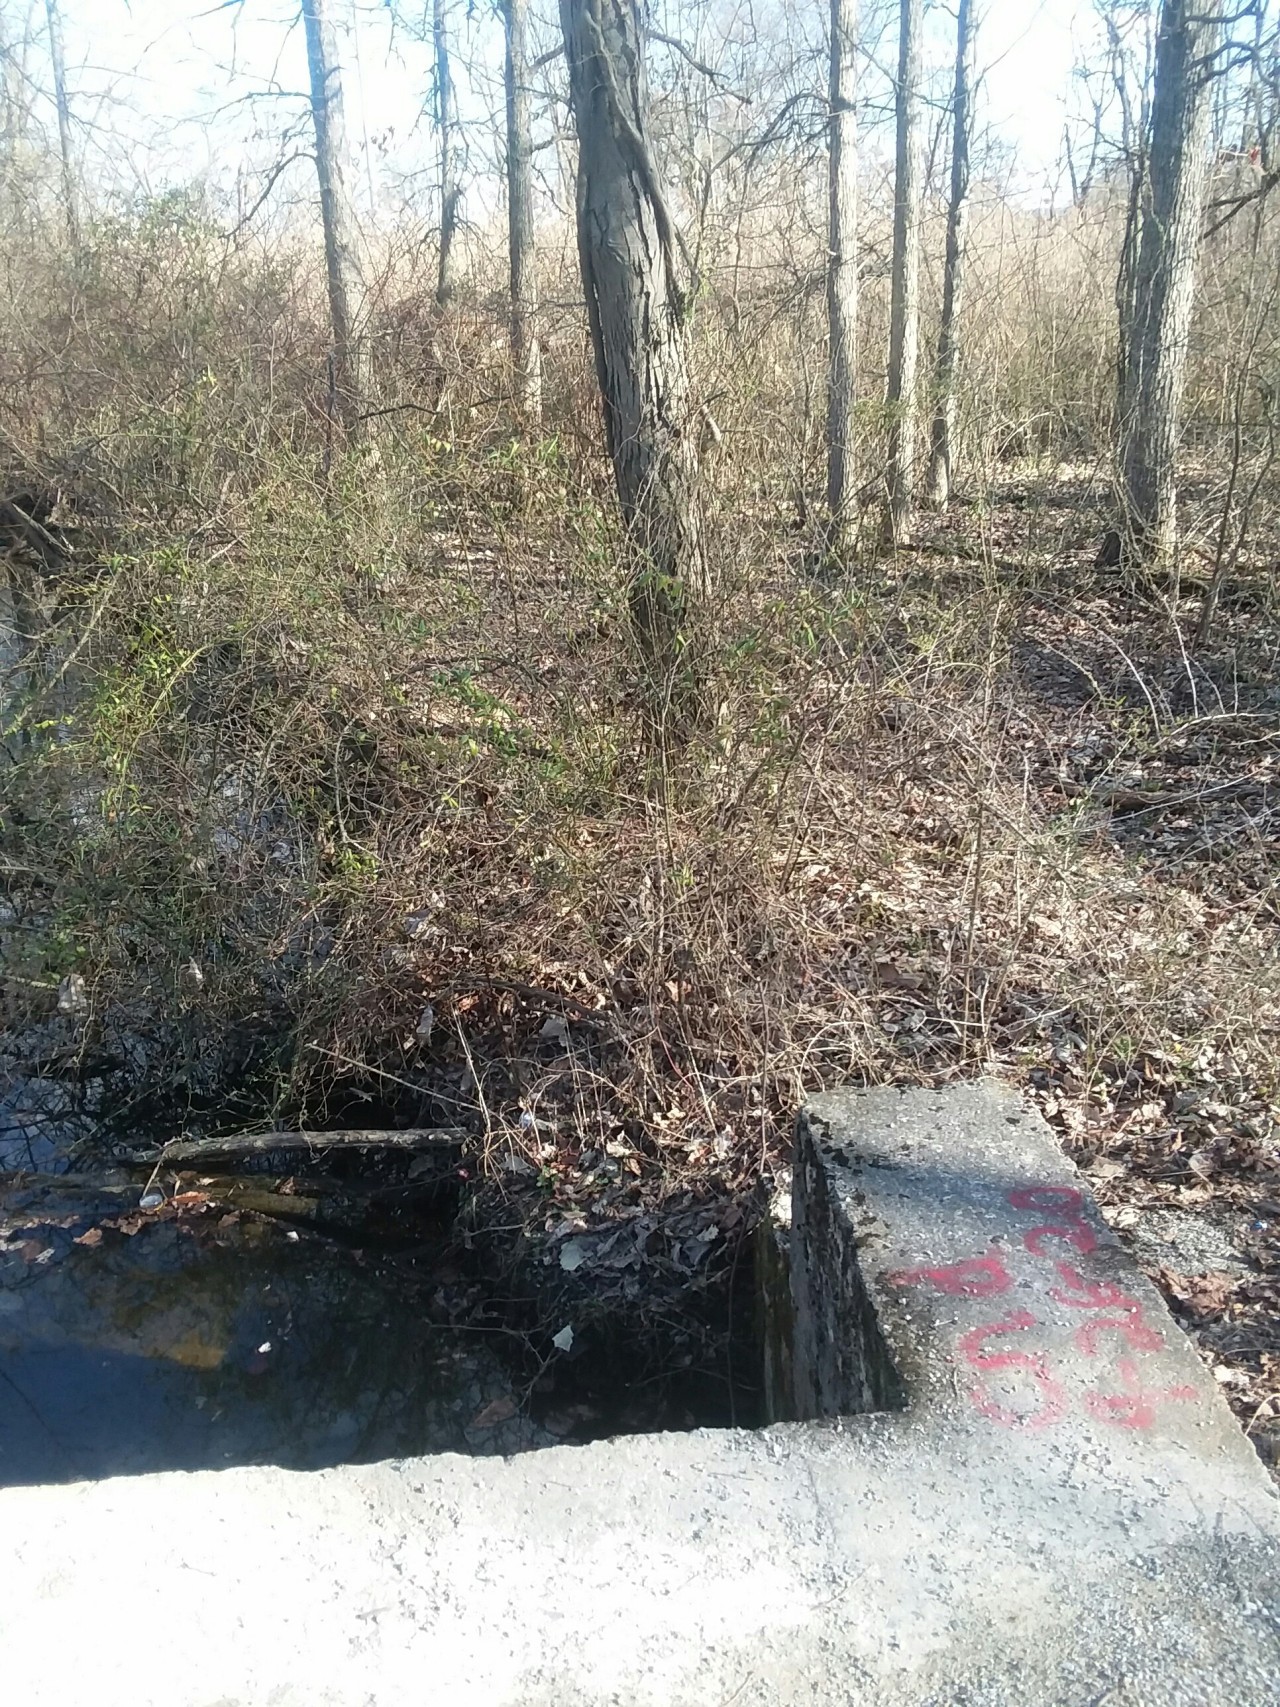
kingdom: Plantae
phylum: Tracheophyta
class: Magnoliopsida
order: Fagales
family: Juglandaceae
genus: Carya
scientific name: Carya ovata
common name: Shagbark hickory
